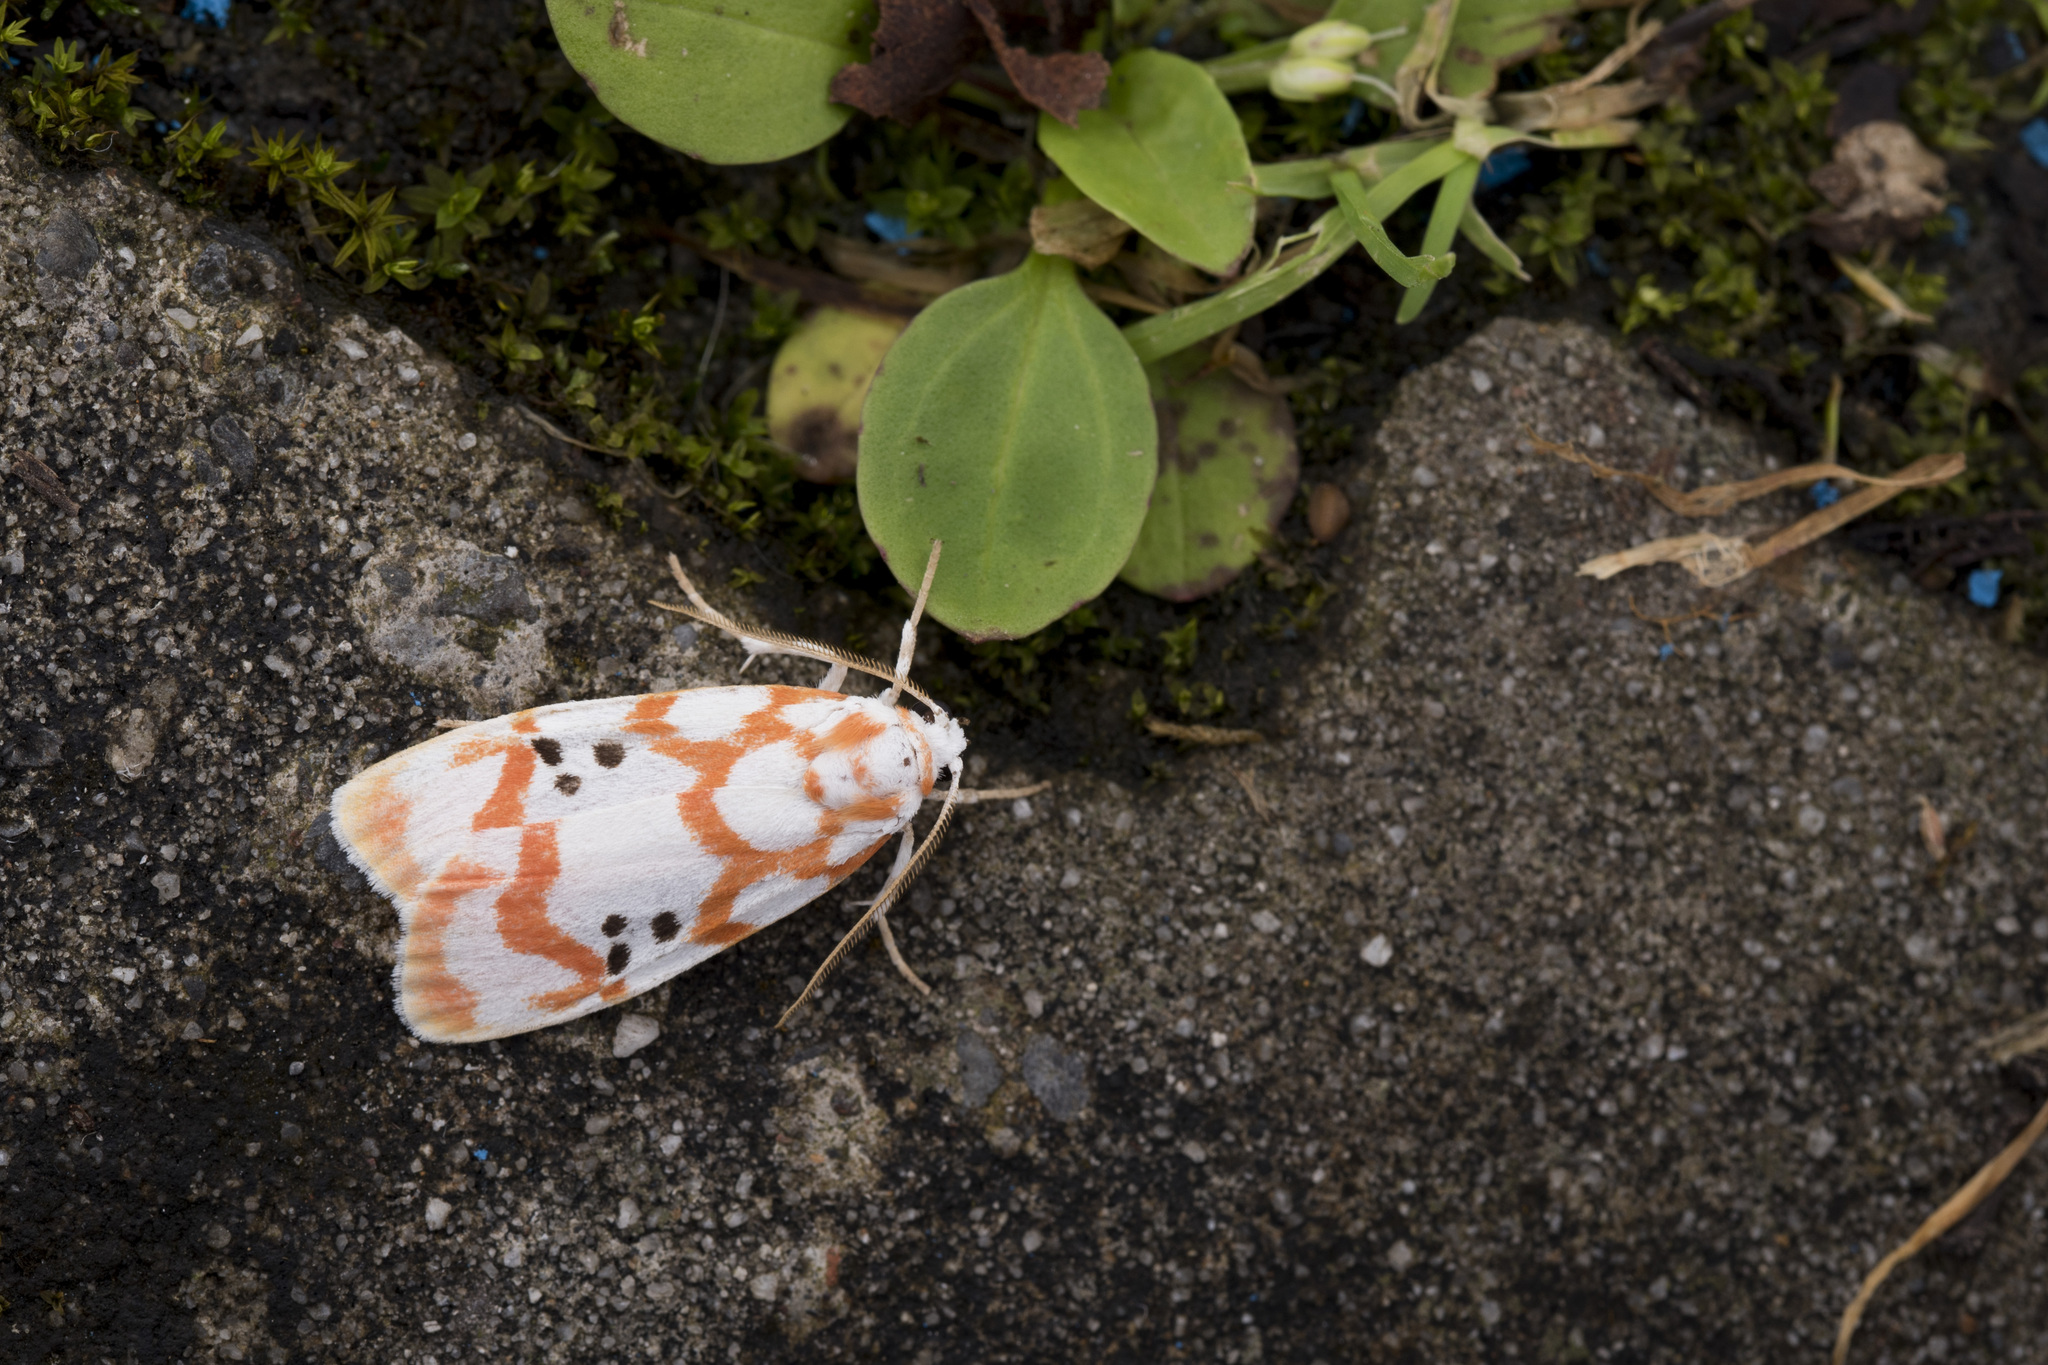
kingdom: Animalia
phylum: Arthropoda
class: Insecta
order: Lepidoptera
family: Erebidae
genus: Cyana
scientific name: Cyana formosana
